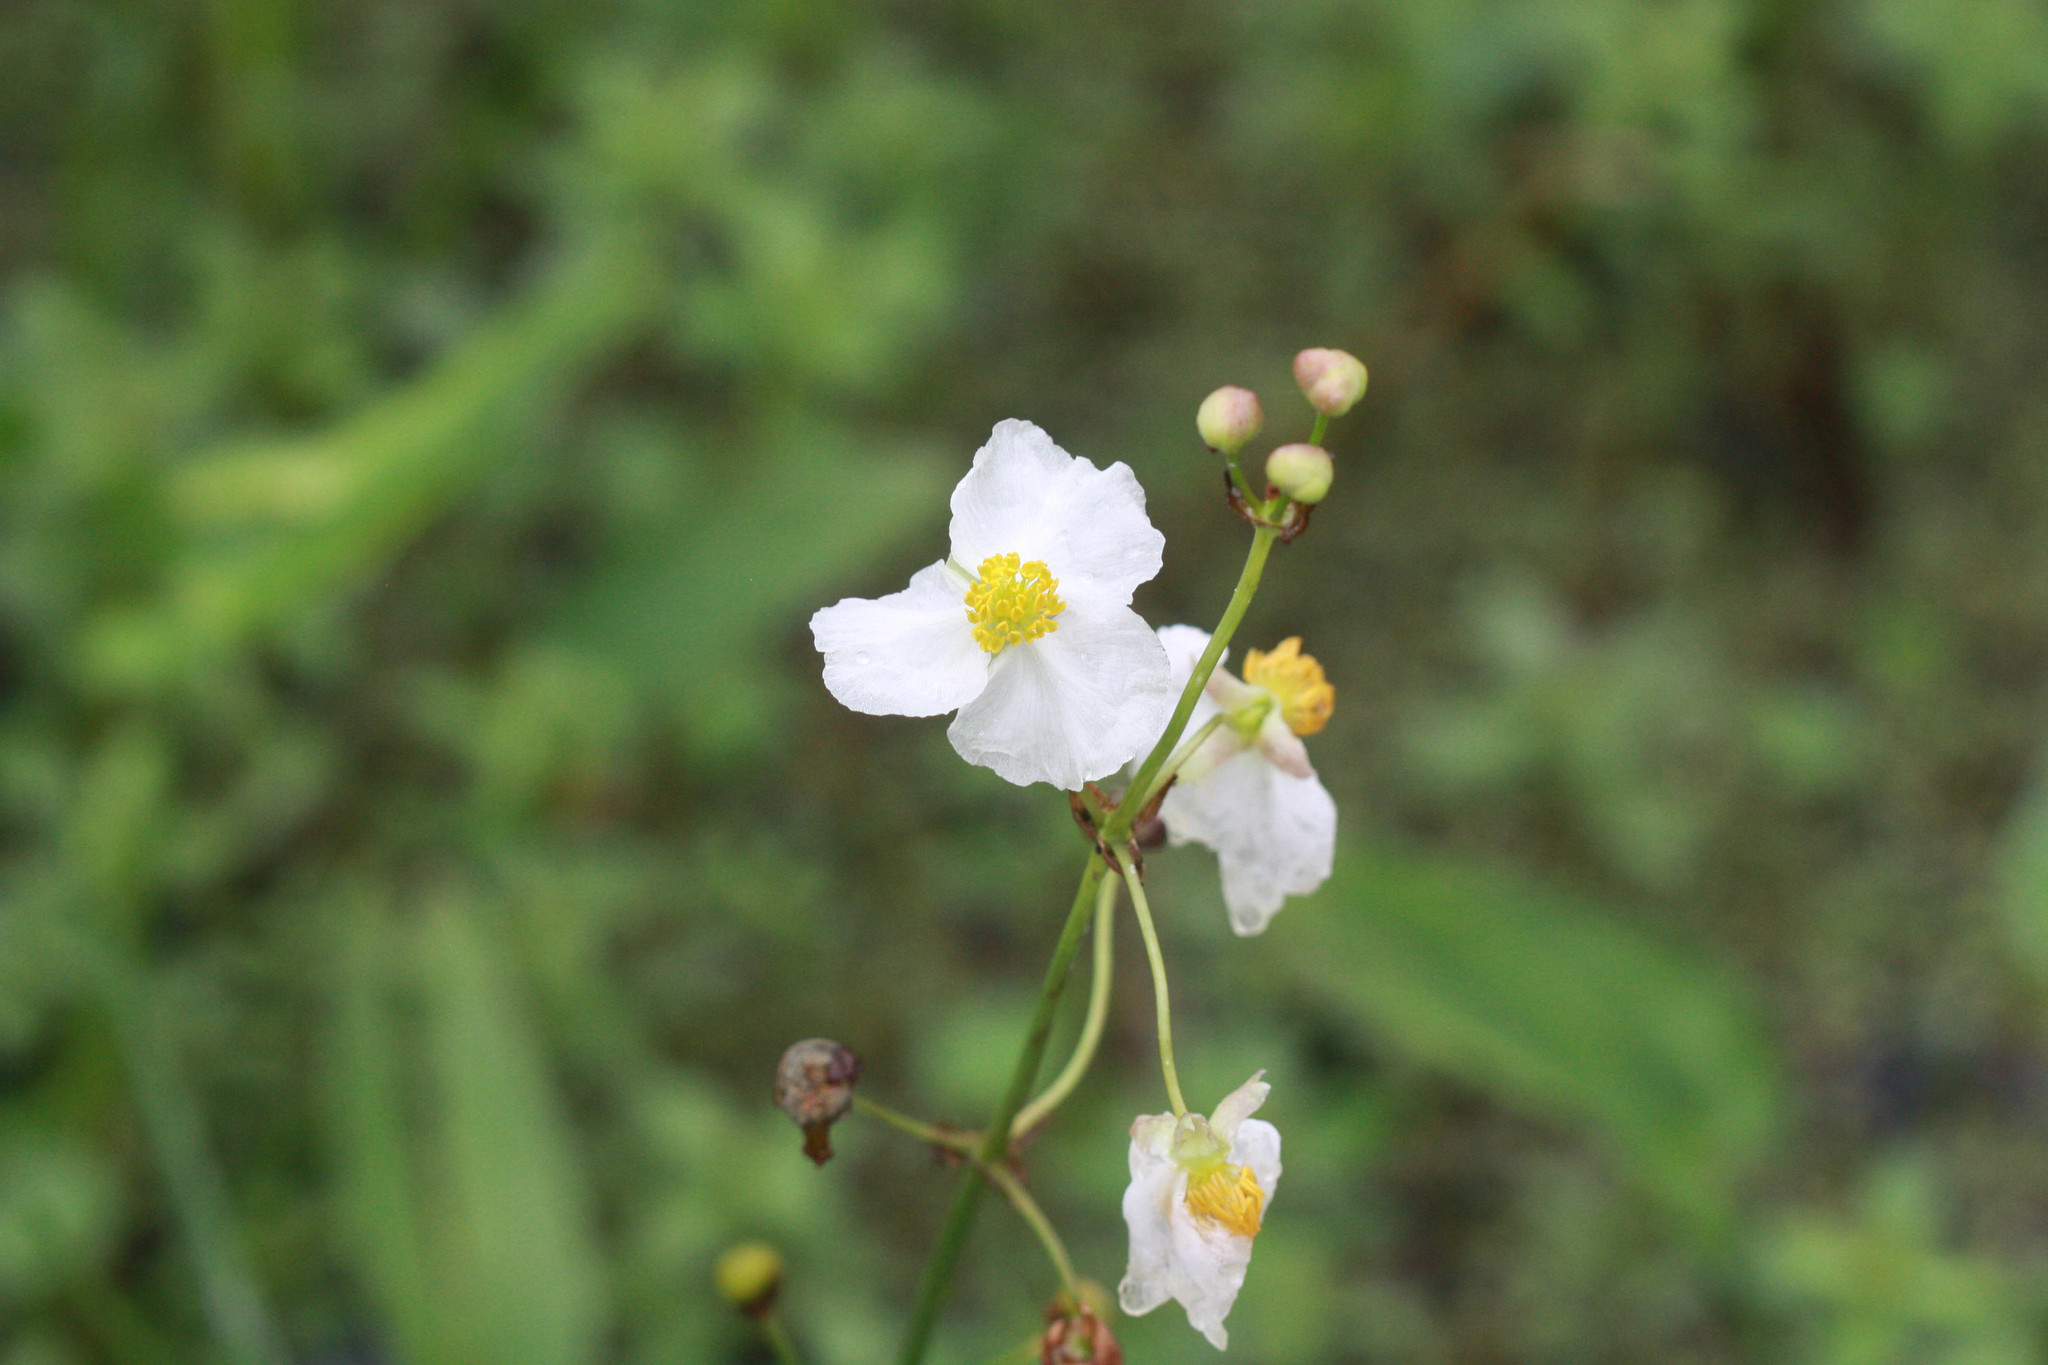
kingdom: Plantae
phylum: Tracheophyta
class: Liliopsida
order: Alismatales
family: Alismataceae
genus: Sagittaria
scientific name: Sagittaria lancifolia
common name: Lance-leaf arrowhead
